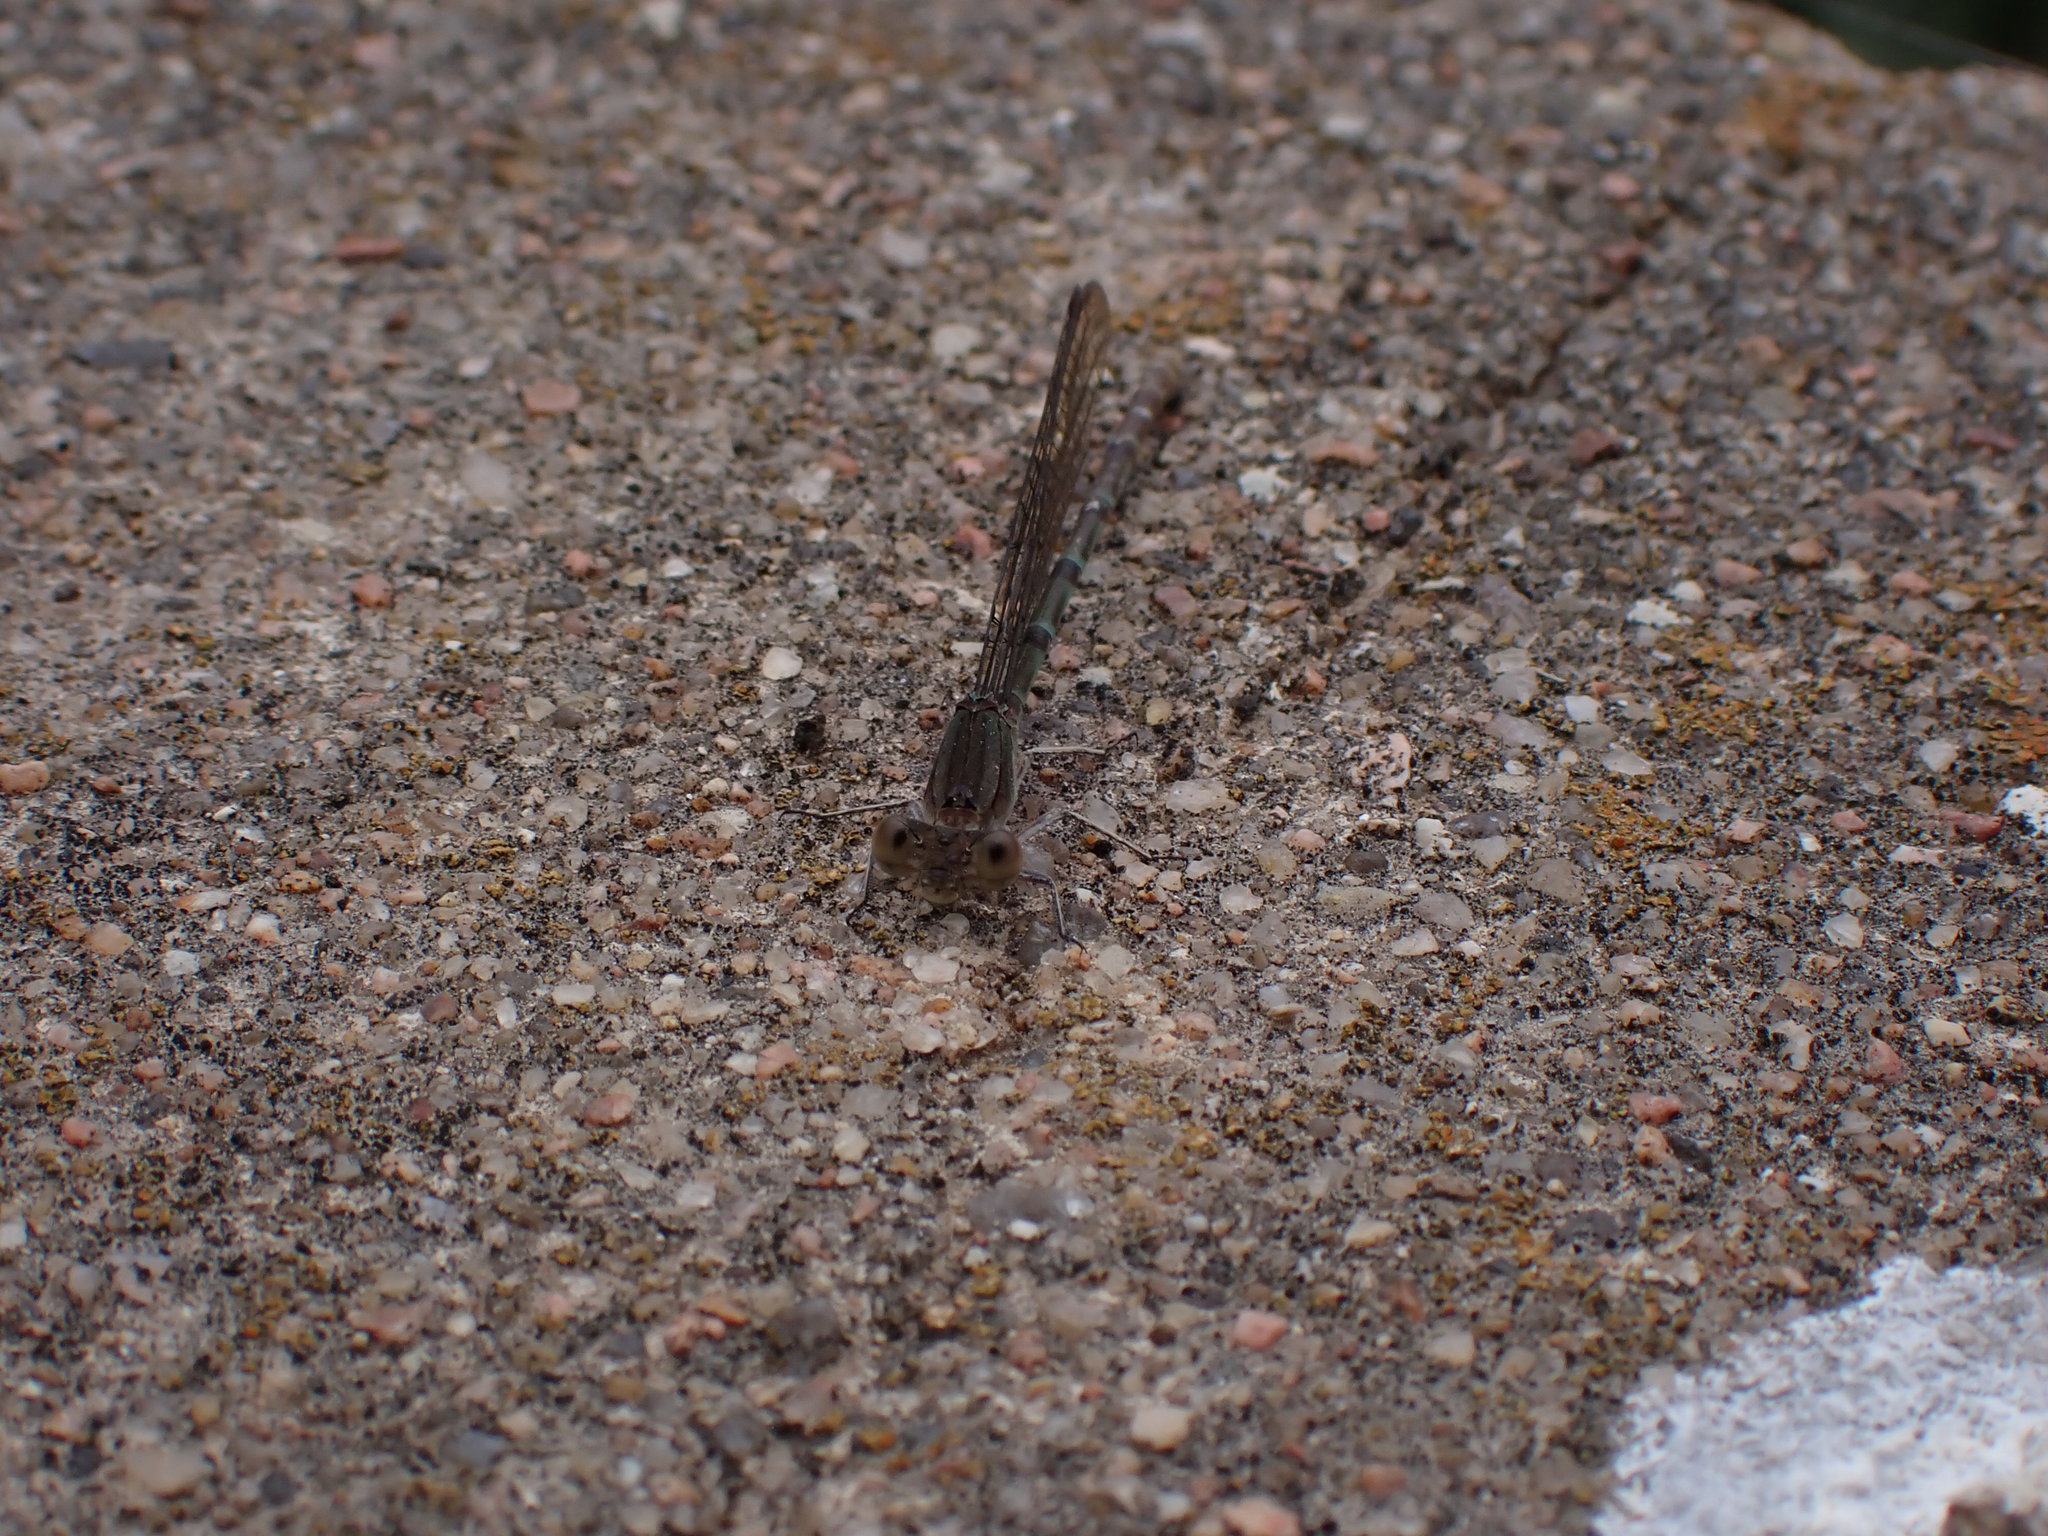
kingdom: Animalia
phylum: Arthropoda
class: Insecta
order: Odonata
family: Coenagrionidae
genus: Argia
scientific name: Argia sedula
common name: Blue-ringed dancer
